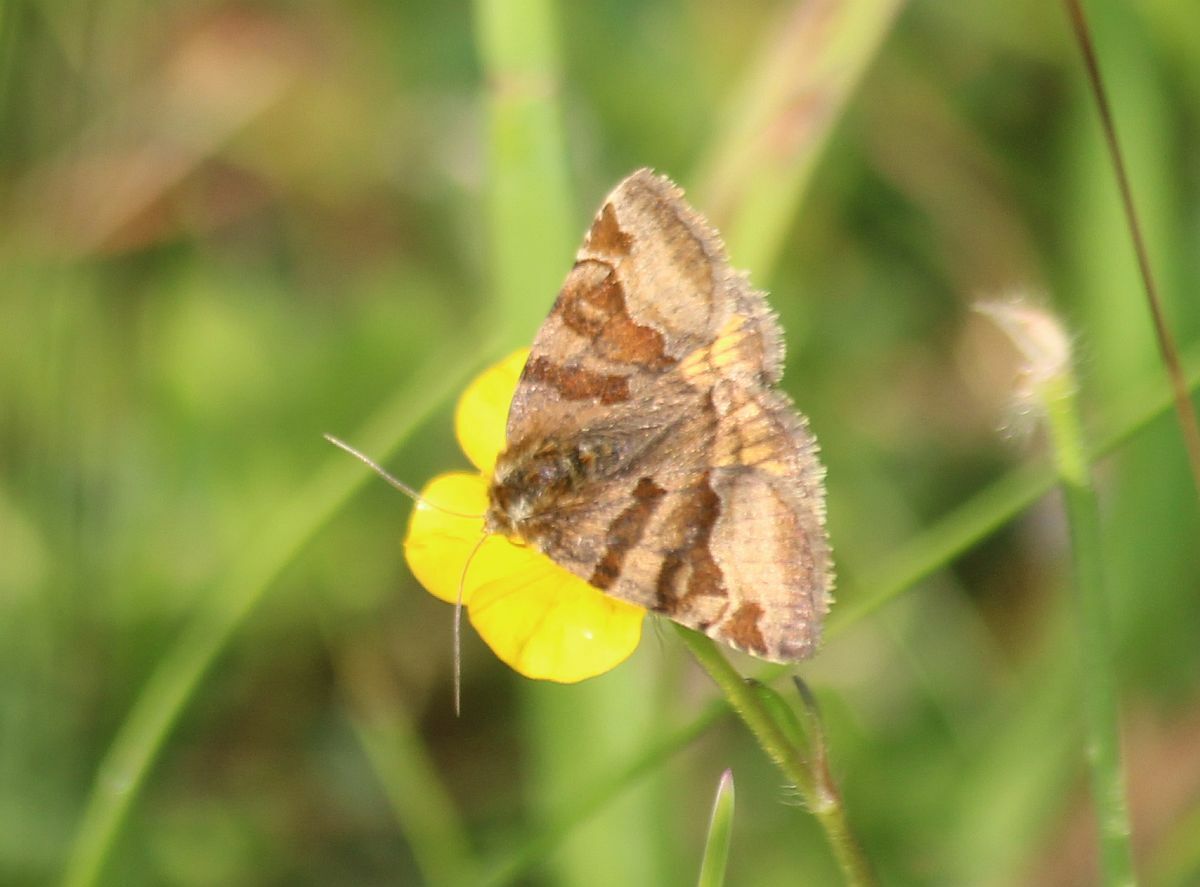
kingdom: Animalia
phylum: Arthropoda
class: Insecta
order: Lepidoptera
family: Erebidae
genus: Euclidia
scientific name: Euclidia glyphica
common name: Burnet companion
